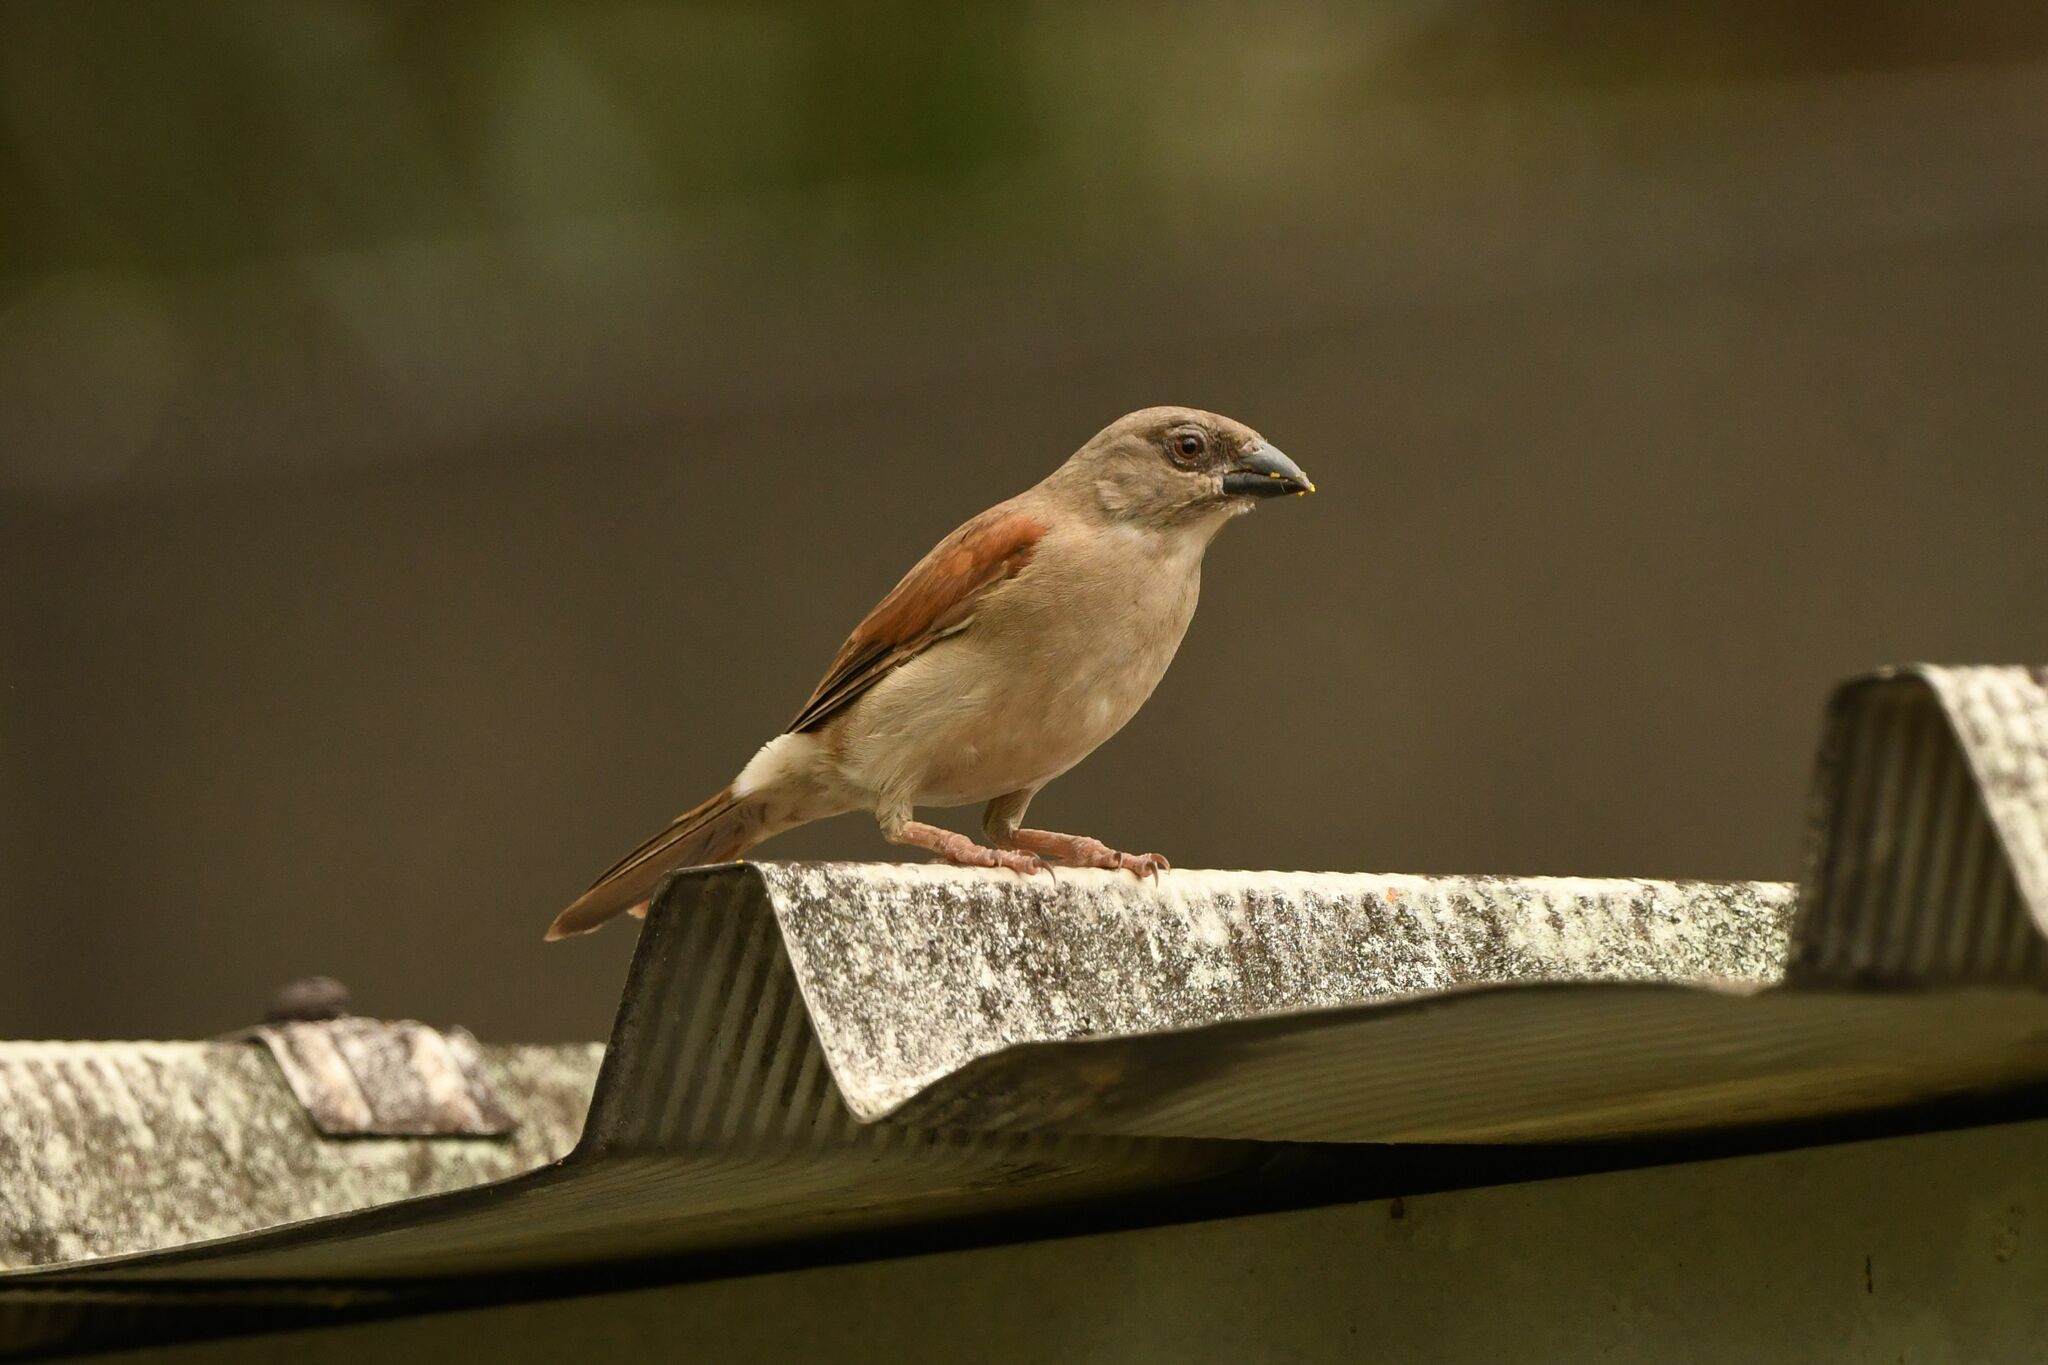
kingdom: Animalia
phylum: Chordata
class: Aves
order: Passeriformes
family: Passeridae
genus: Passer
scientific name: Passer griseus
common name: Northern grey-headed sparrow
